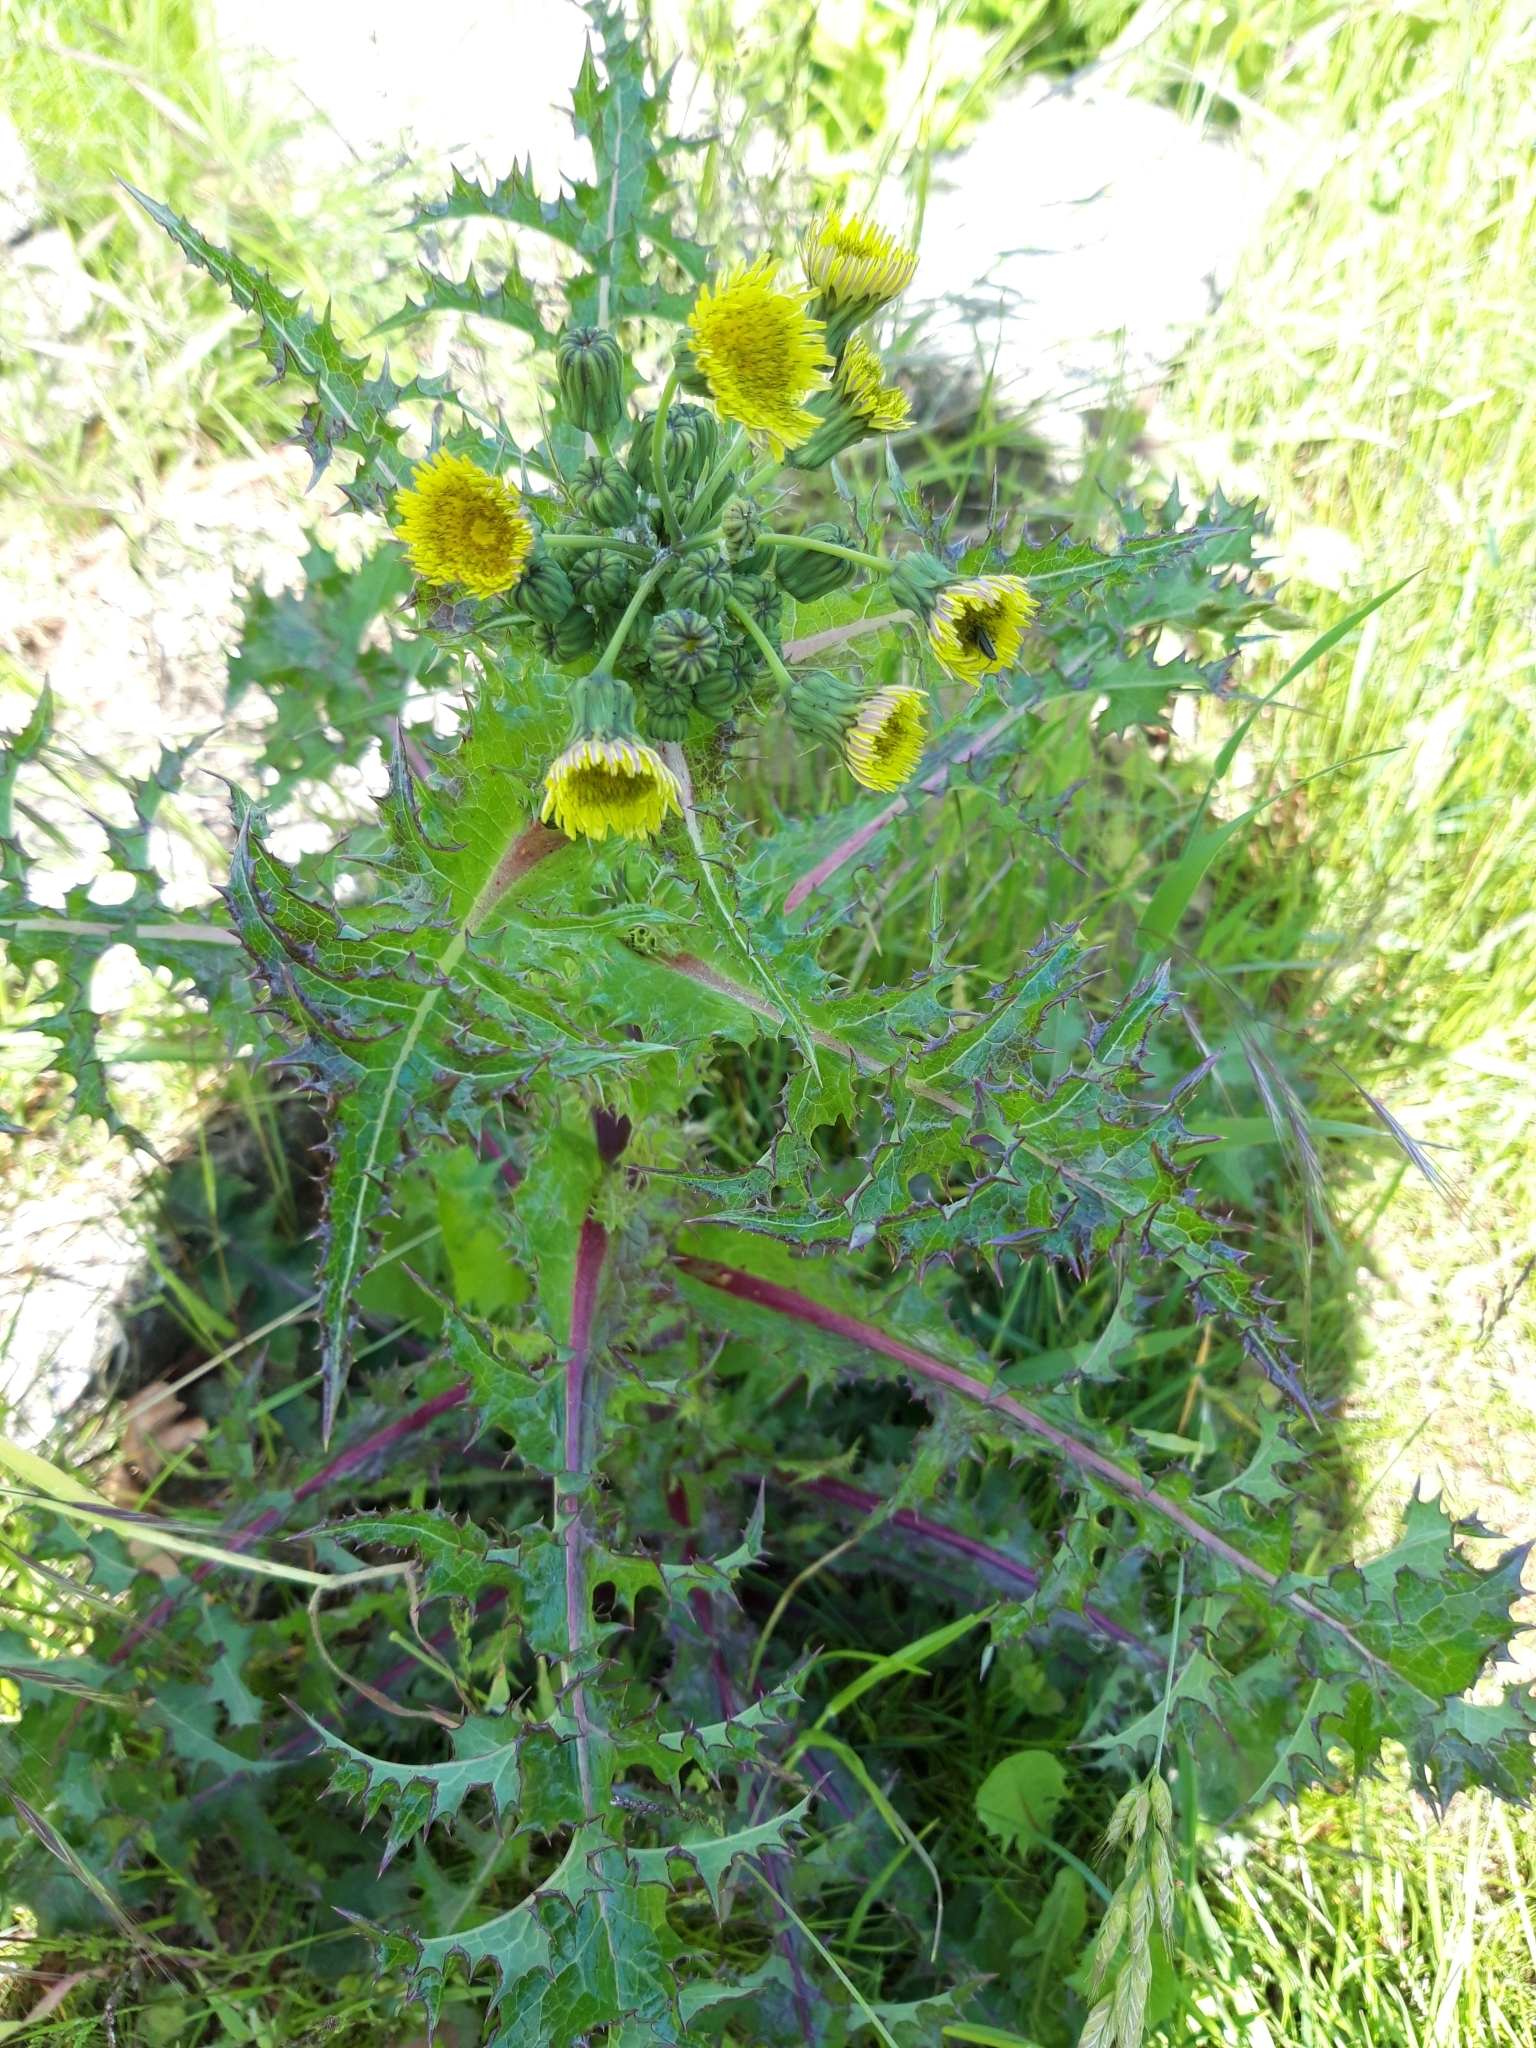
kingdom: Plantae
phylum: Tracheophyta
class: Magnoliopsida
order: Asterales
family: Asteraceae
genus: Sonchus
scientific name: Sonchus oleraceus
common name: Common sowthistle
